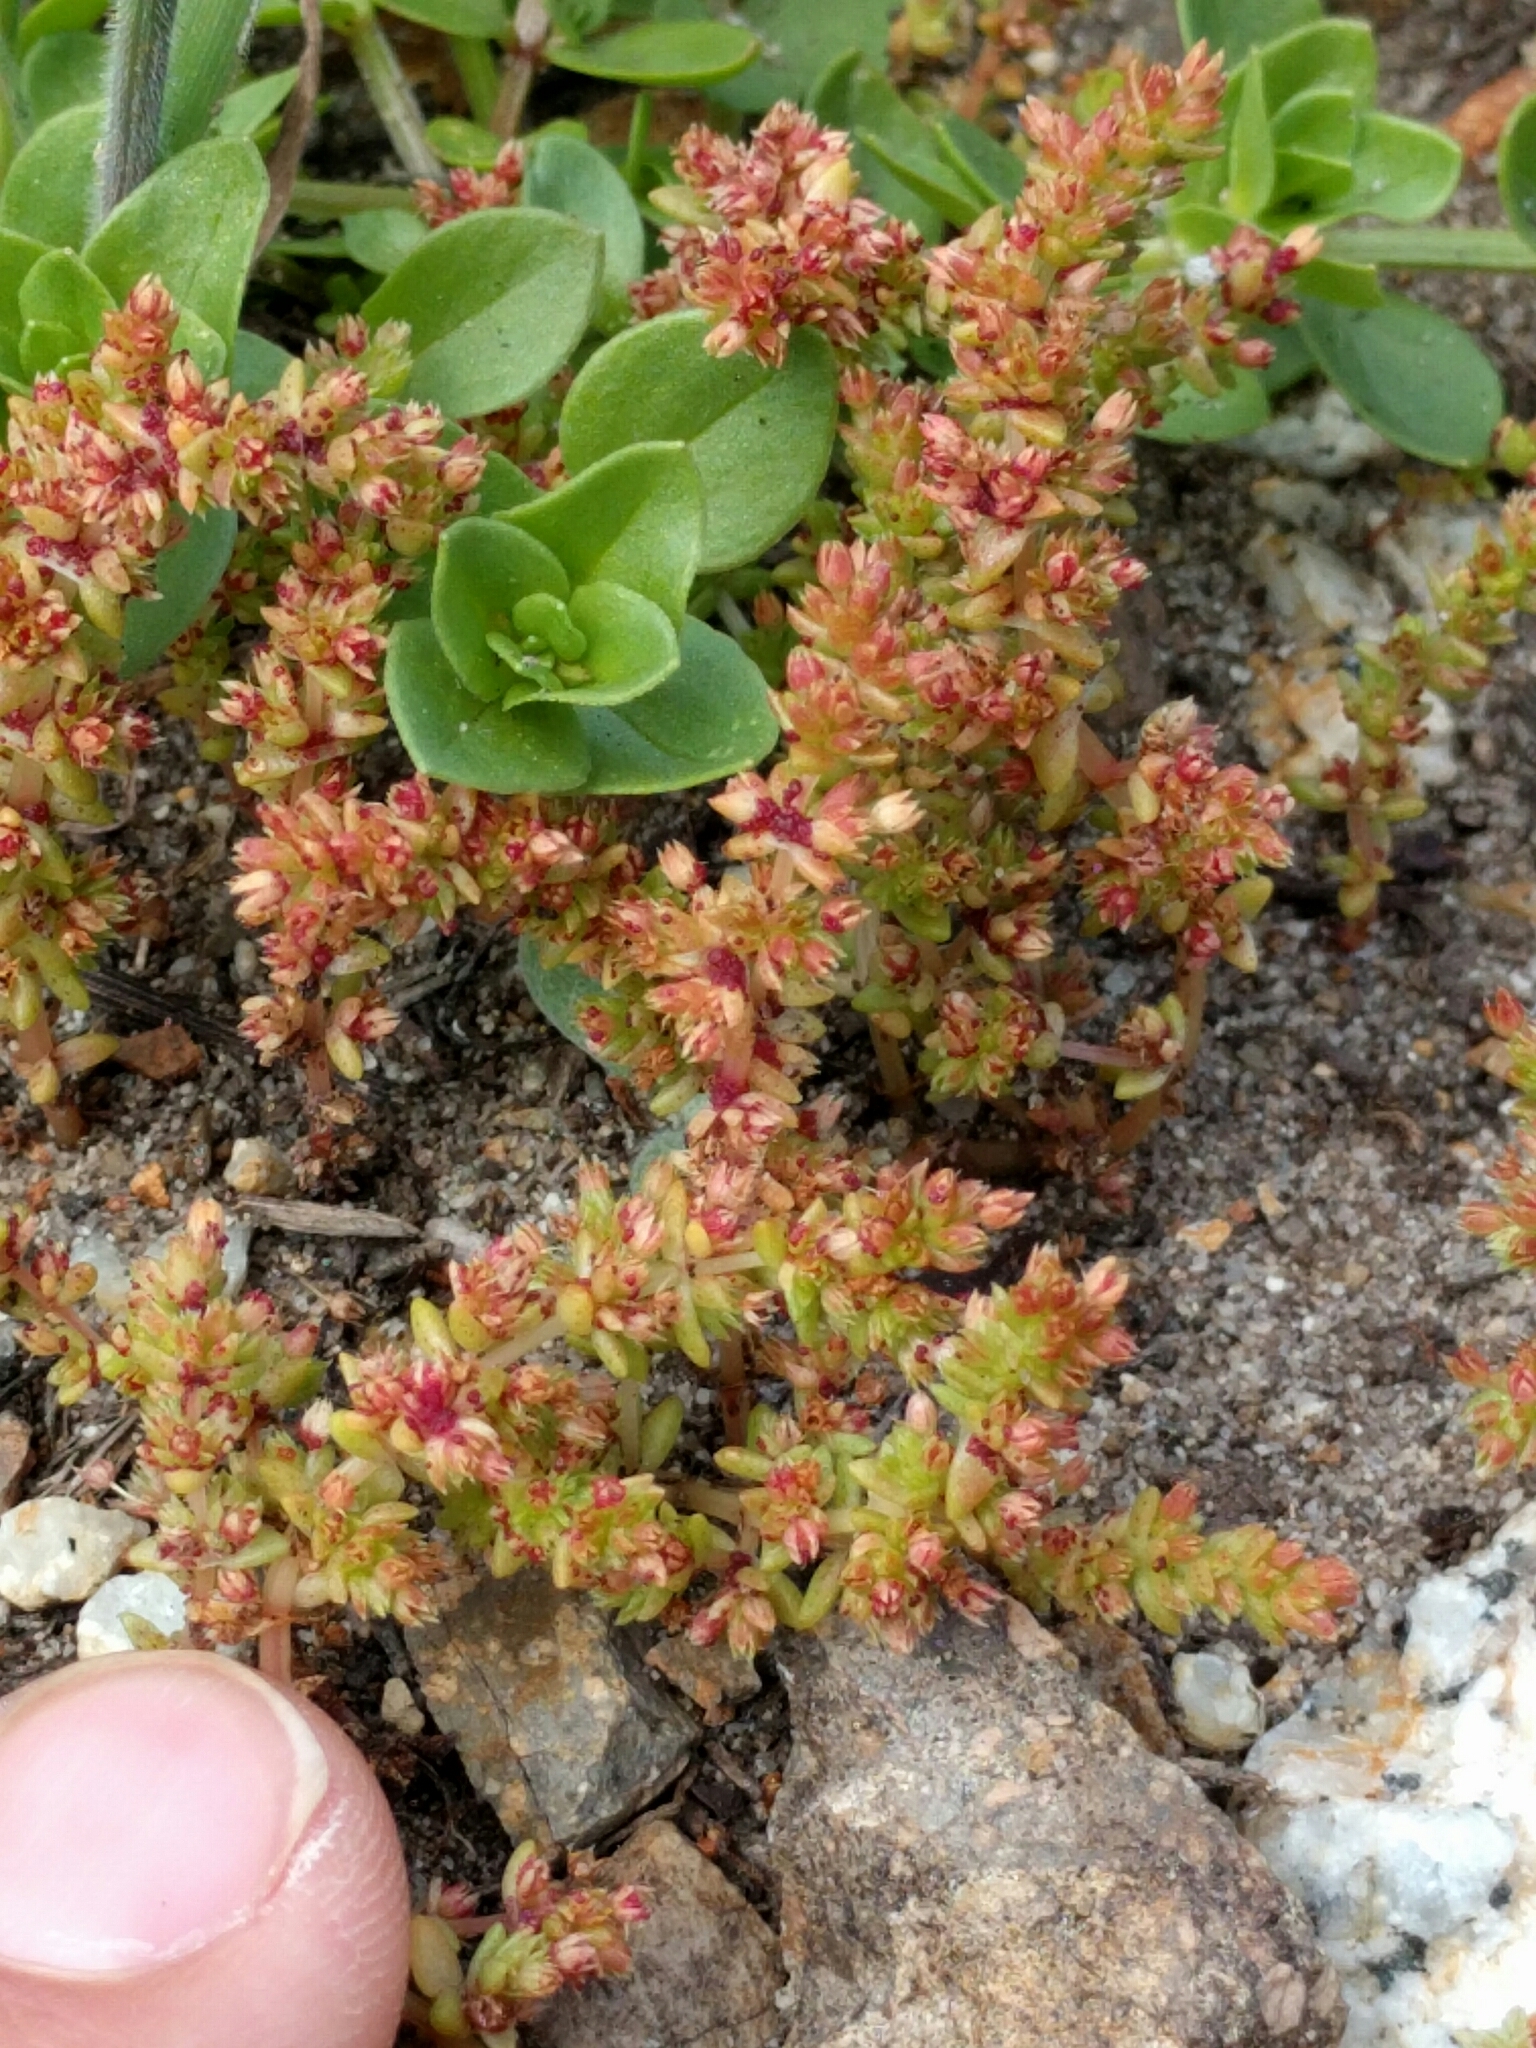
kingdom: Plantae
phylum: Tracheophyta
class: Magnoliopsida
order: Saxifragales
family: Crassulaceae
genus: Crassula
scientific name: Crassula connata
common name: Erect pygmyweed
